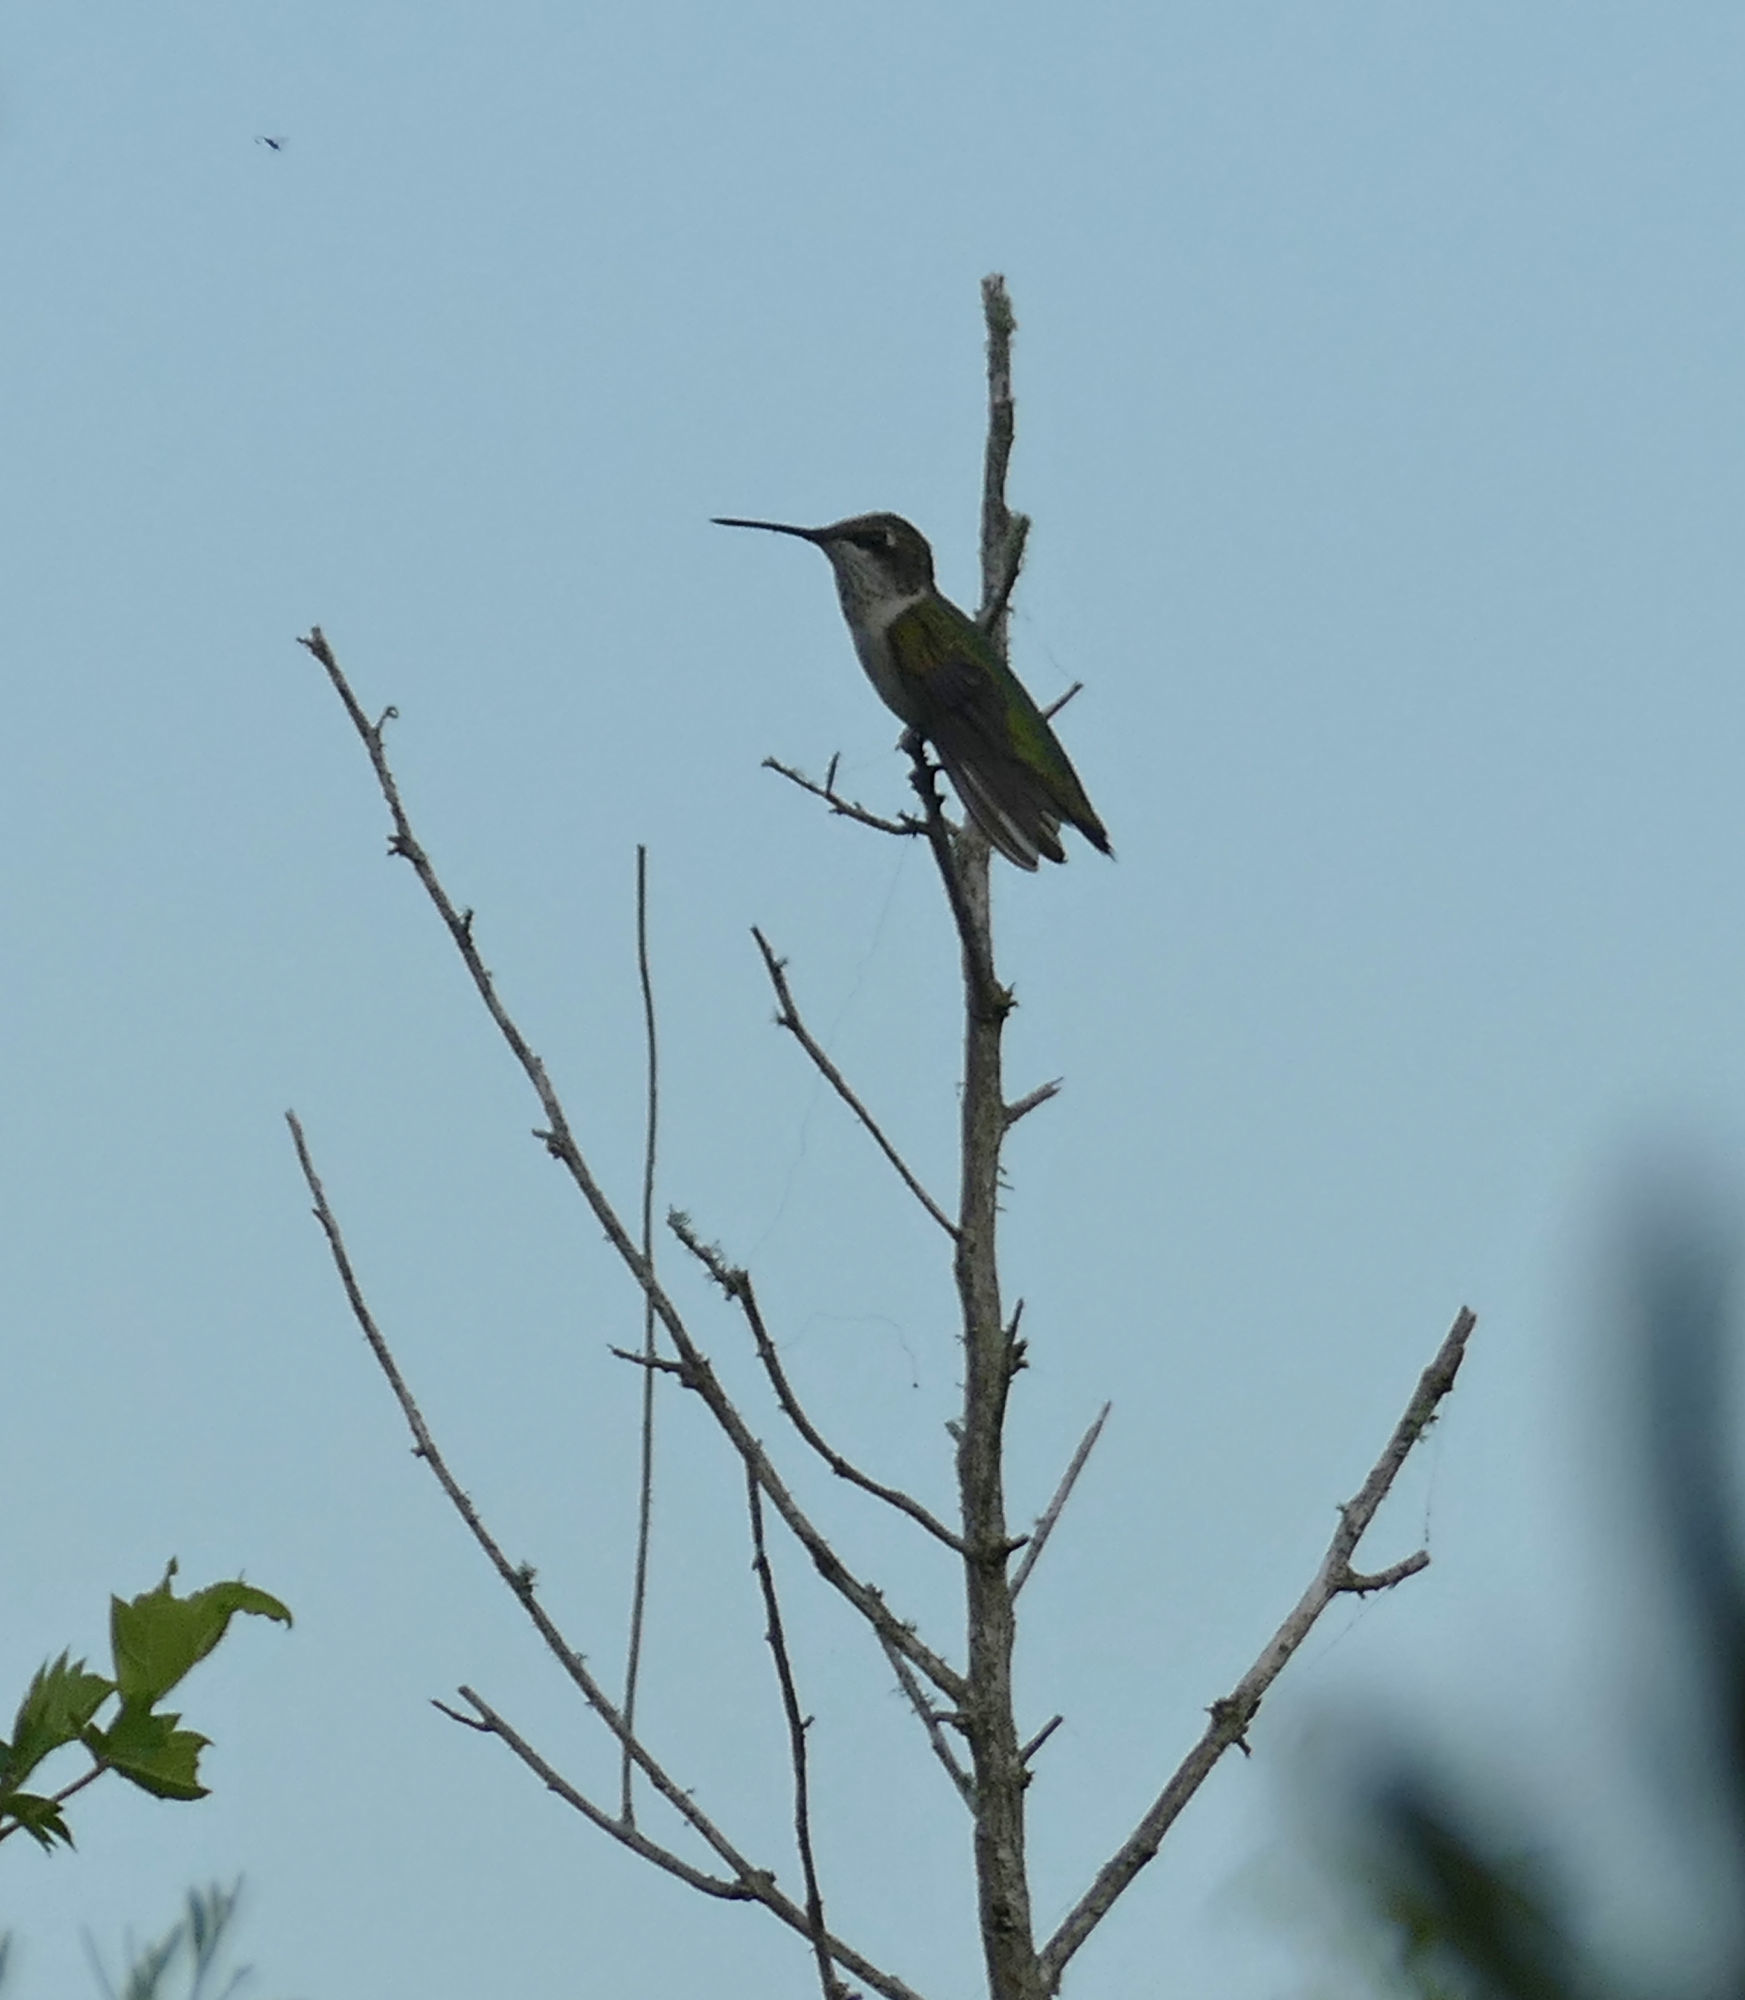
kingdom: Animalia
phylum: Chordata
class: Aves
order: Apodiformes
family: Trochilidae
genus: Archilochus
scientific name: Archilochus colubris
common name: Ruby-throated hummingbird
